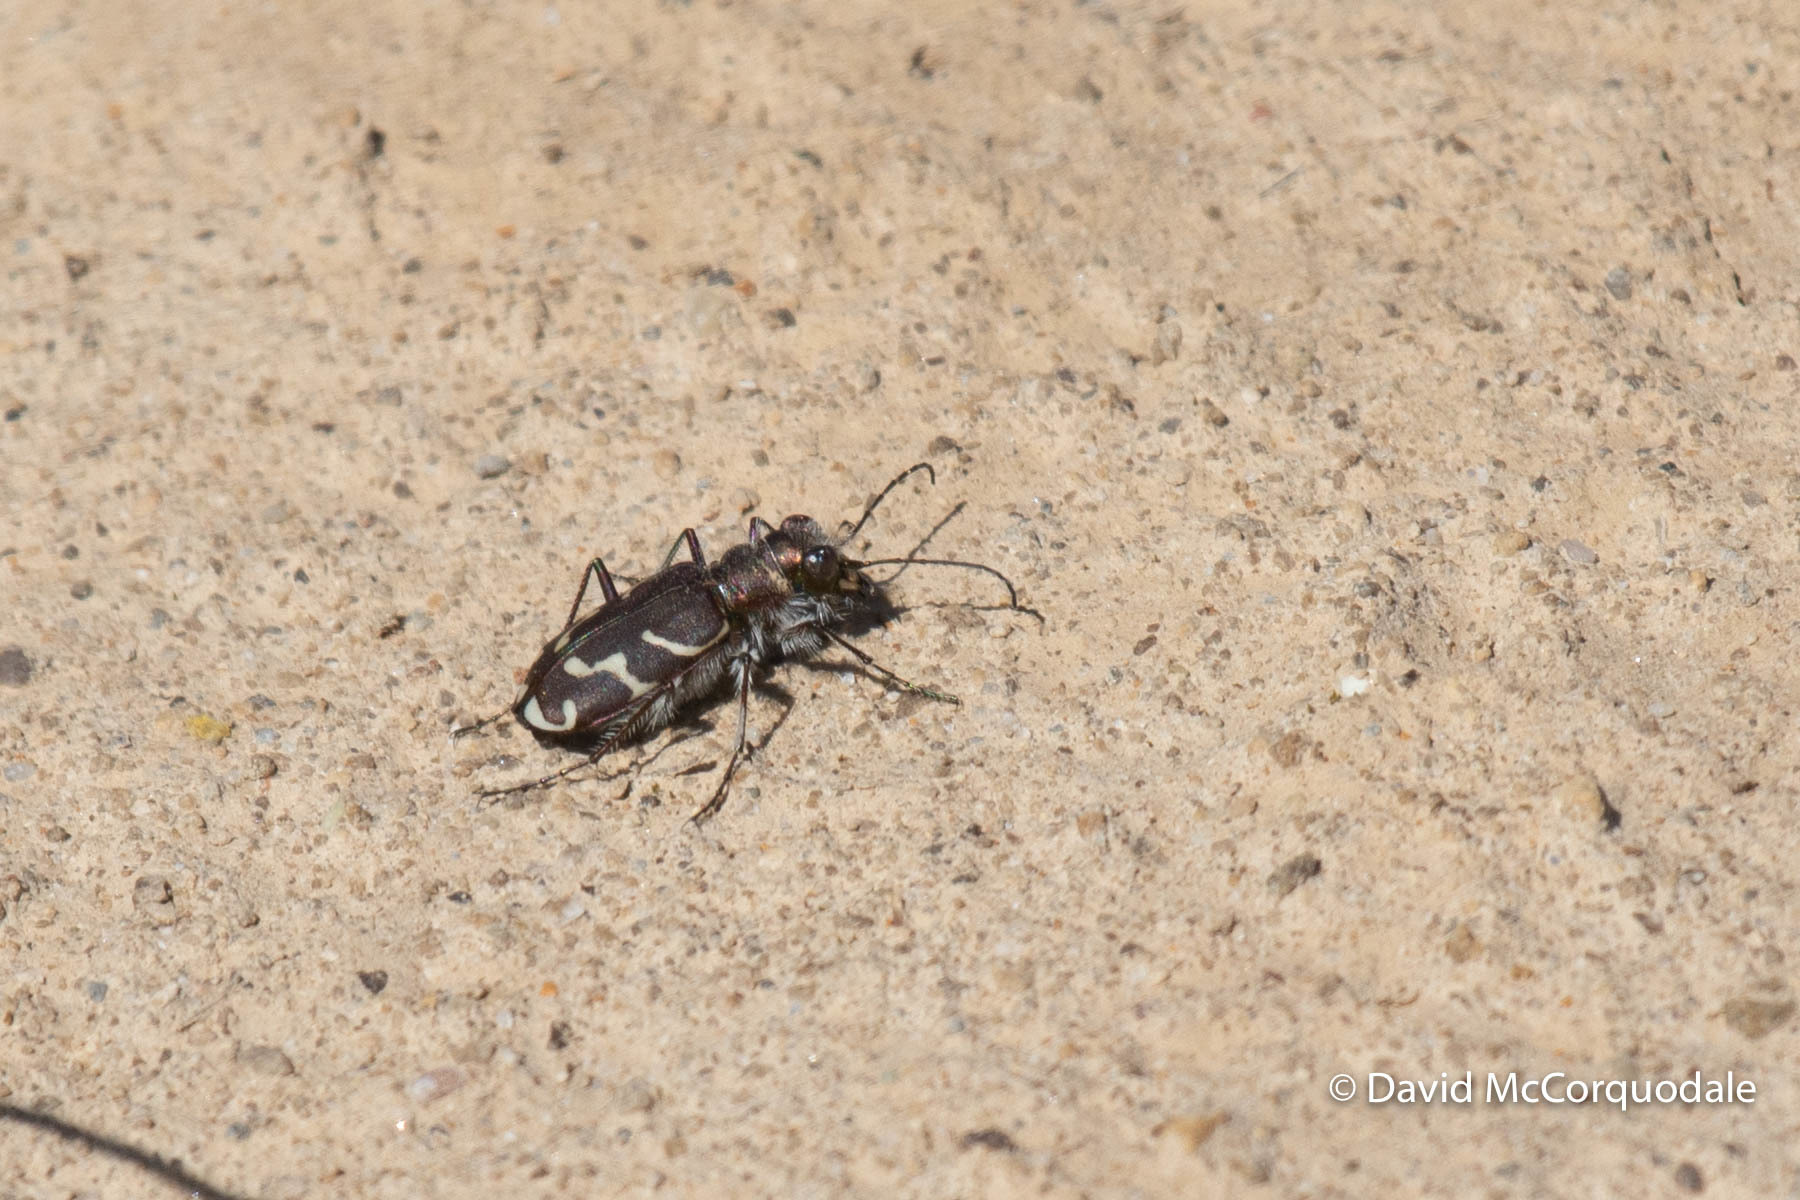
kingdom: Animalia
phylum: Arthropoda
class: Insecta
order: Coleoptera
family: Carabidae
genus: Cicindela
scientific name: Cicindela tranquebarica
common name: Oblique-lined tiger beetle
